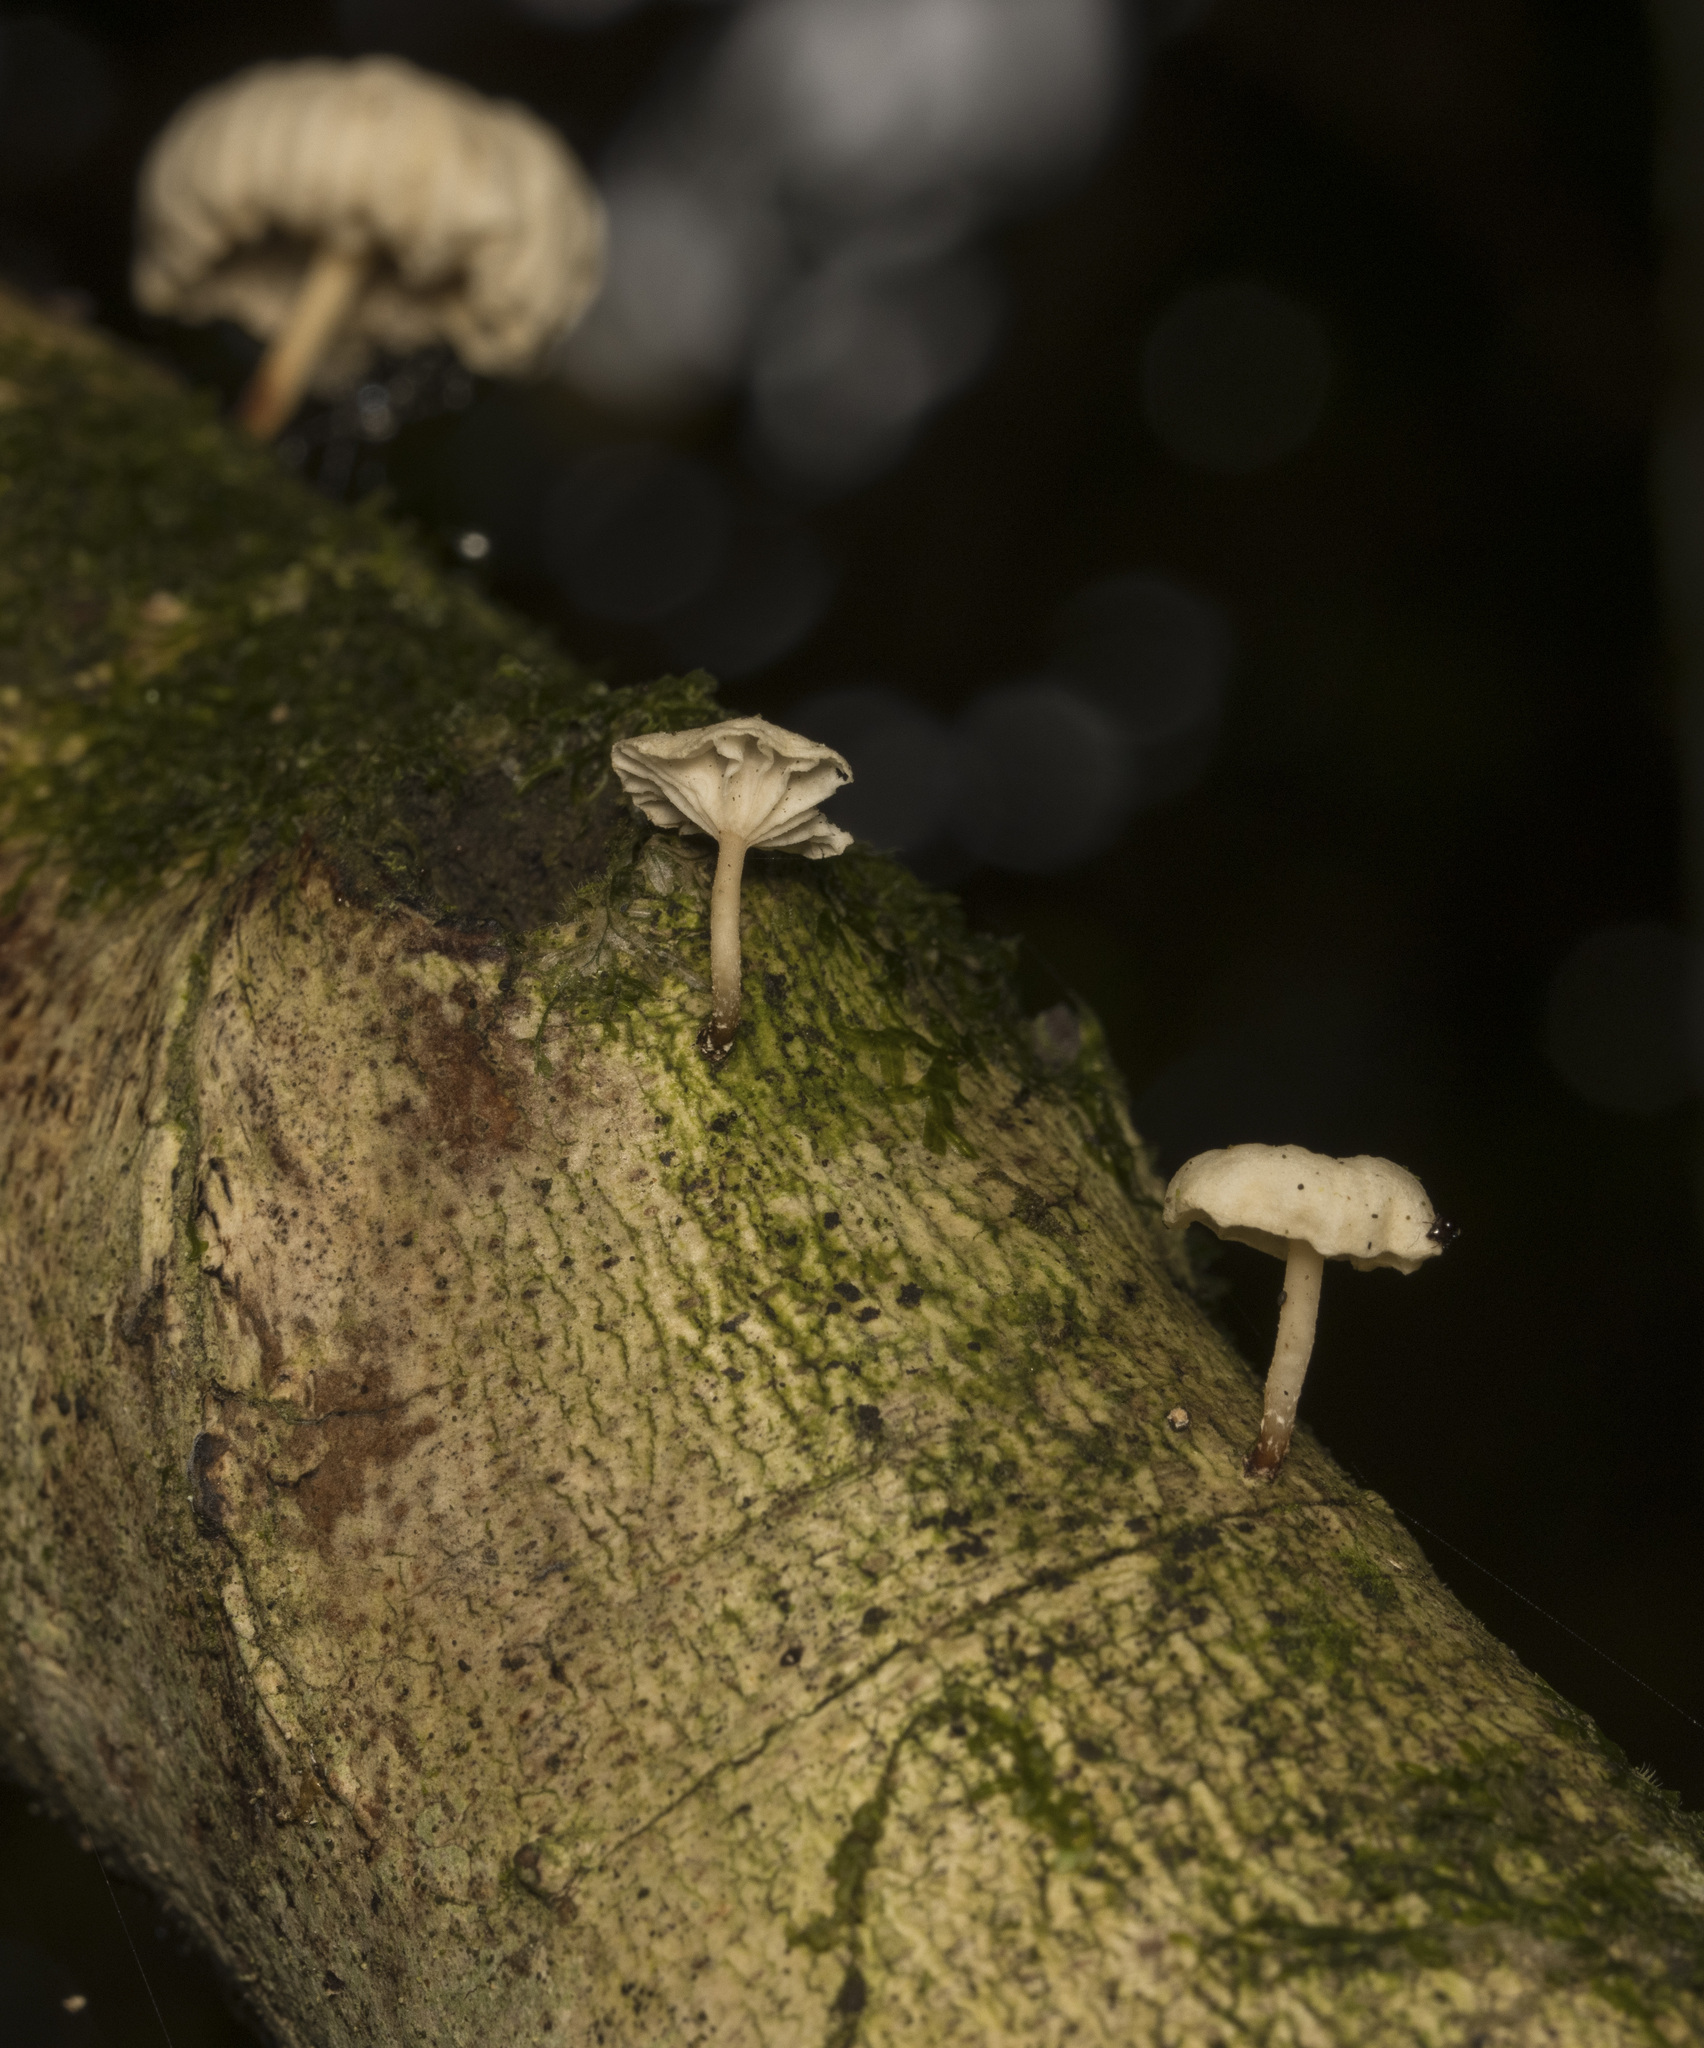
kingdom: Fungi
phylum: Basidiomycota
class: Agaricomycetes
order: Agaricales
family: Omphalotaceae
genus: Marasmiellus
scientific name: Marasmiellus alliiodorus
